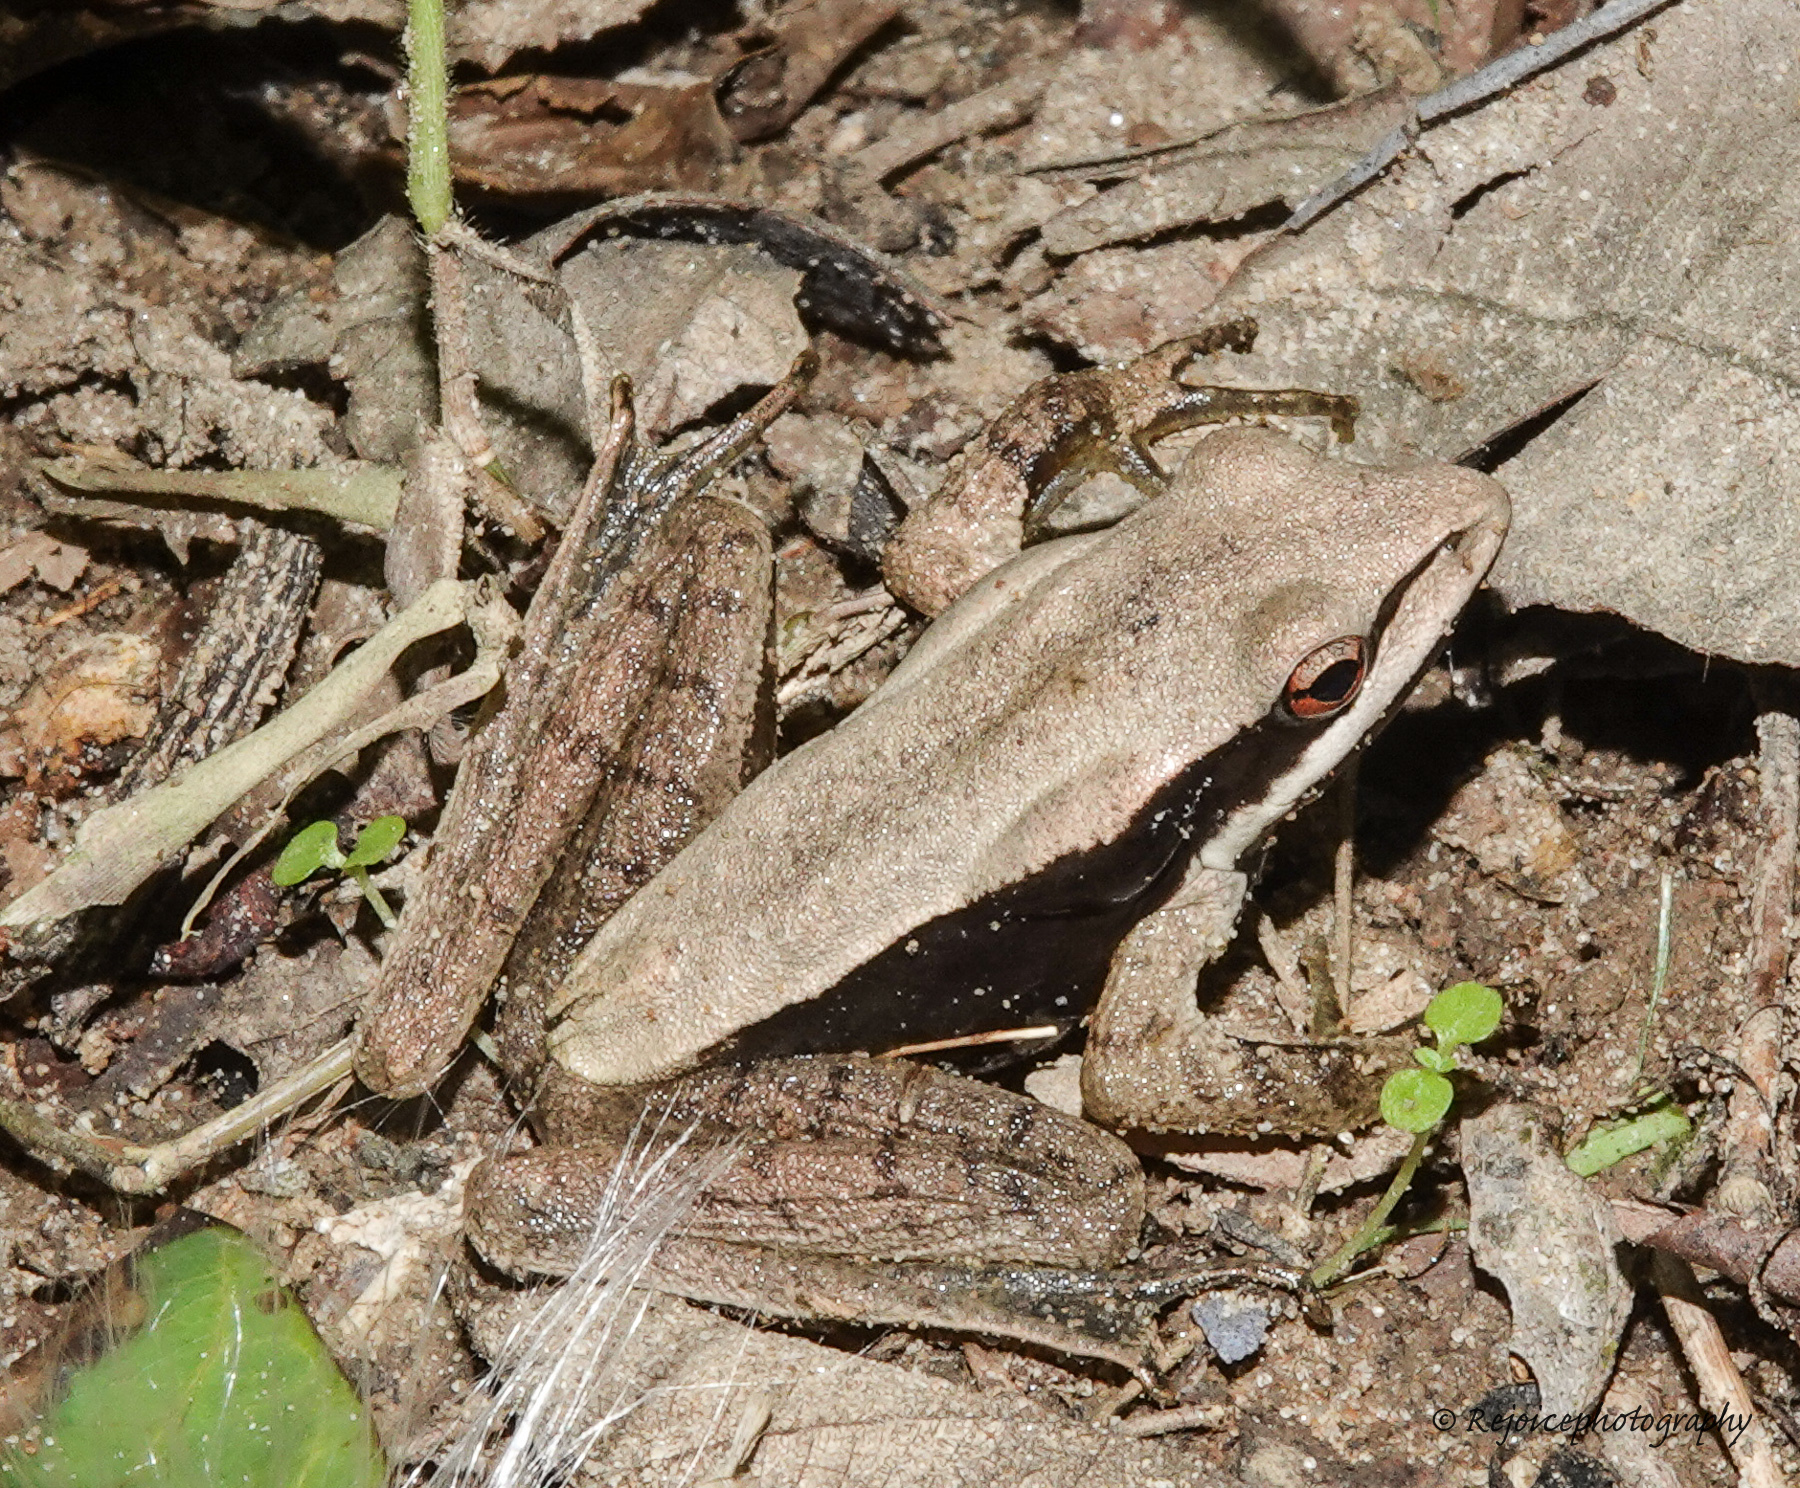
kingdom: Animalia
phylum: Chordata
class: Amphibia
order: Anura
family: Ranidae
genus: Clinotarsus
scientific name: Clinotarsus alticola
